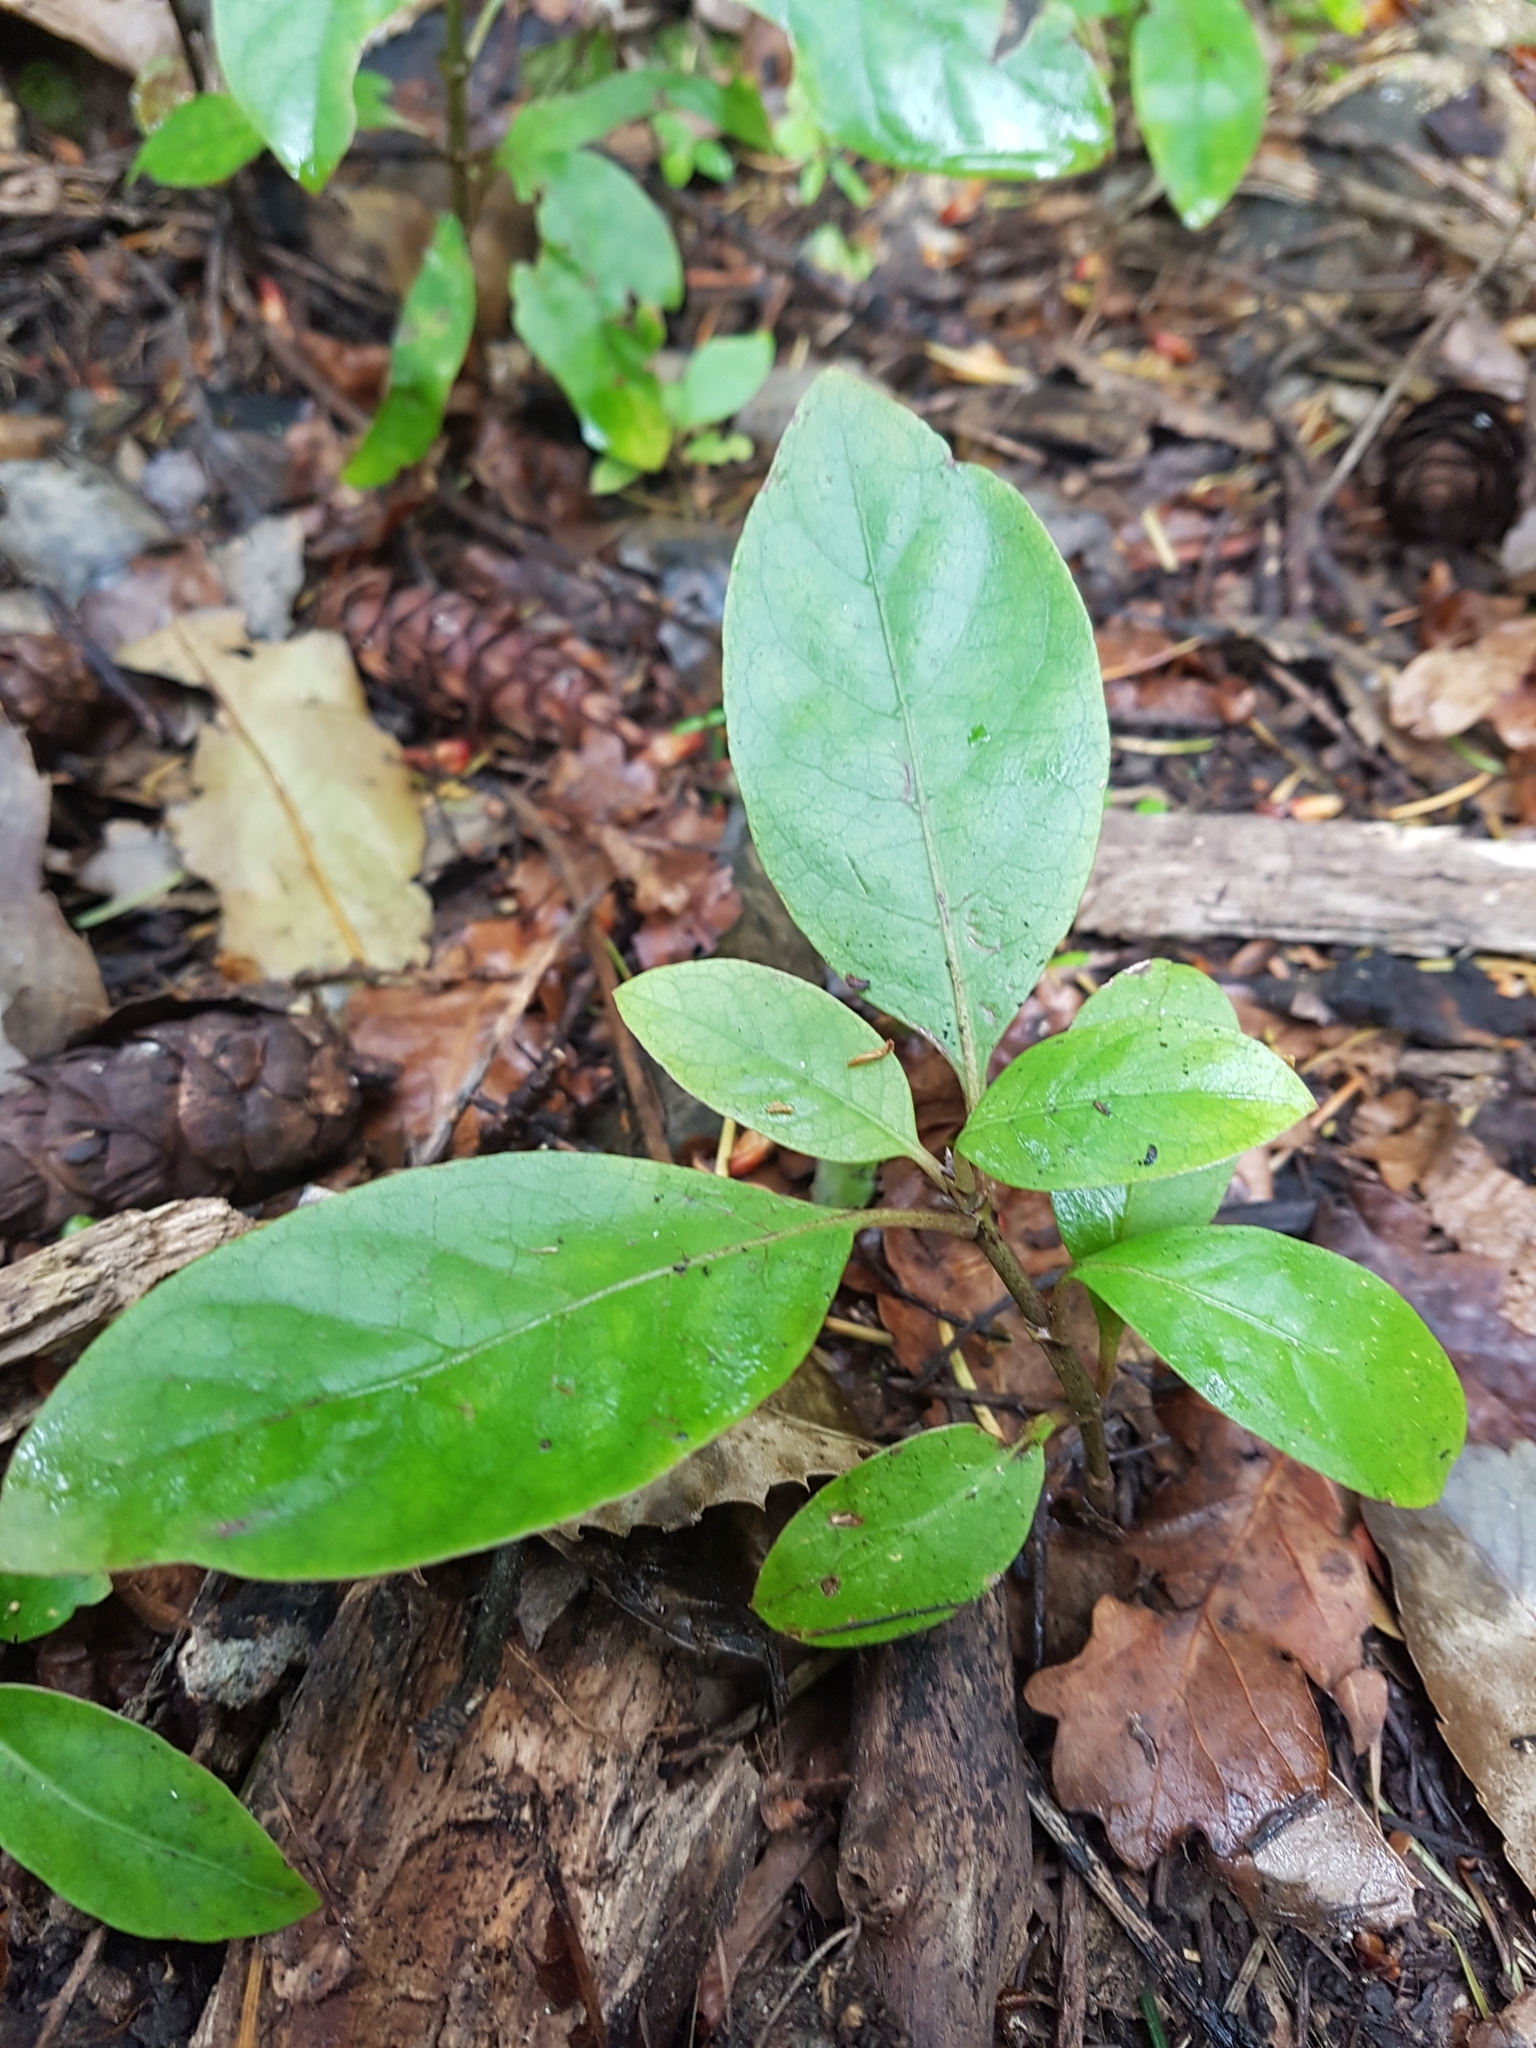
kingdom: Plantae
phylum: Tracheophyta
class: Magnoliopsida
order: Gentianales
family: Rubiaceae
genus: Coprosma
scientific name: Coprosma autumnalis
